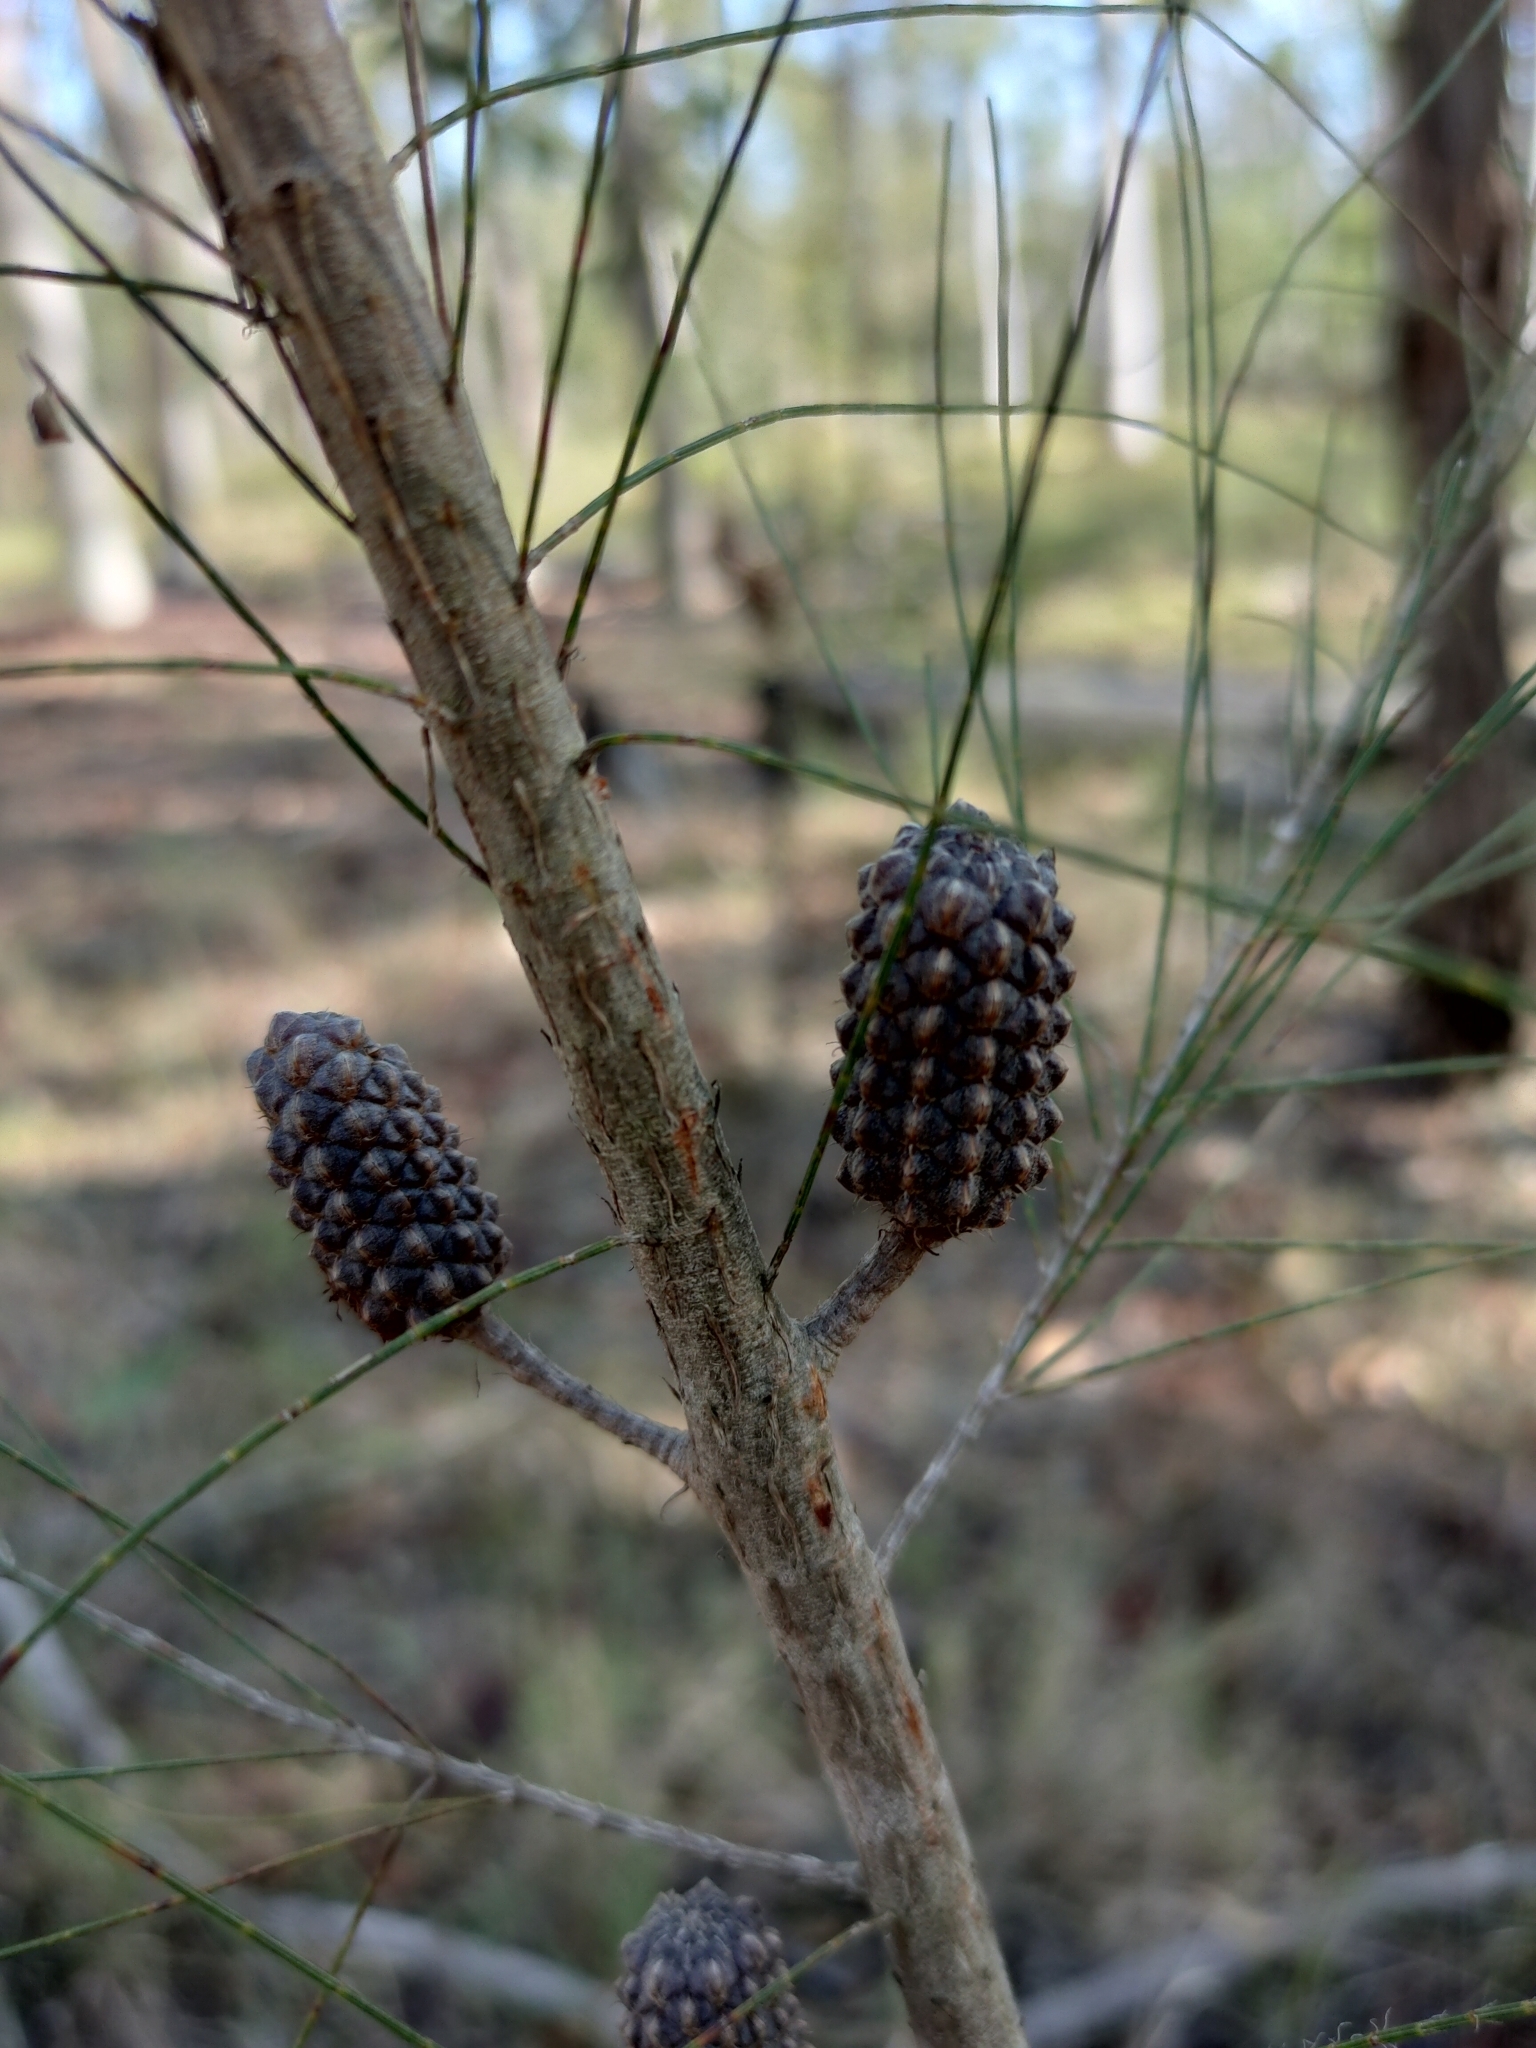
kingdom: Plantae
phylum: Tracheophyta
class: Magnoliopsida
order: Fagales
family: Casuarinaceae
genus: Allocasuarina
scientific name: Allocasuarina littoralis
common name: Black she-oak
